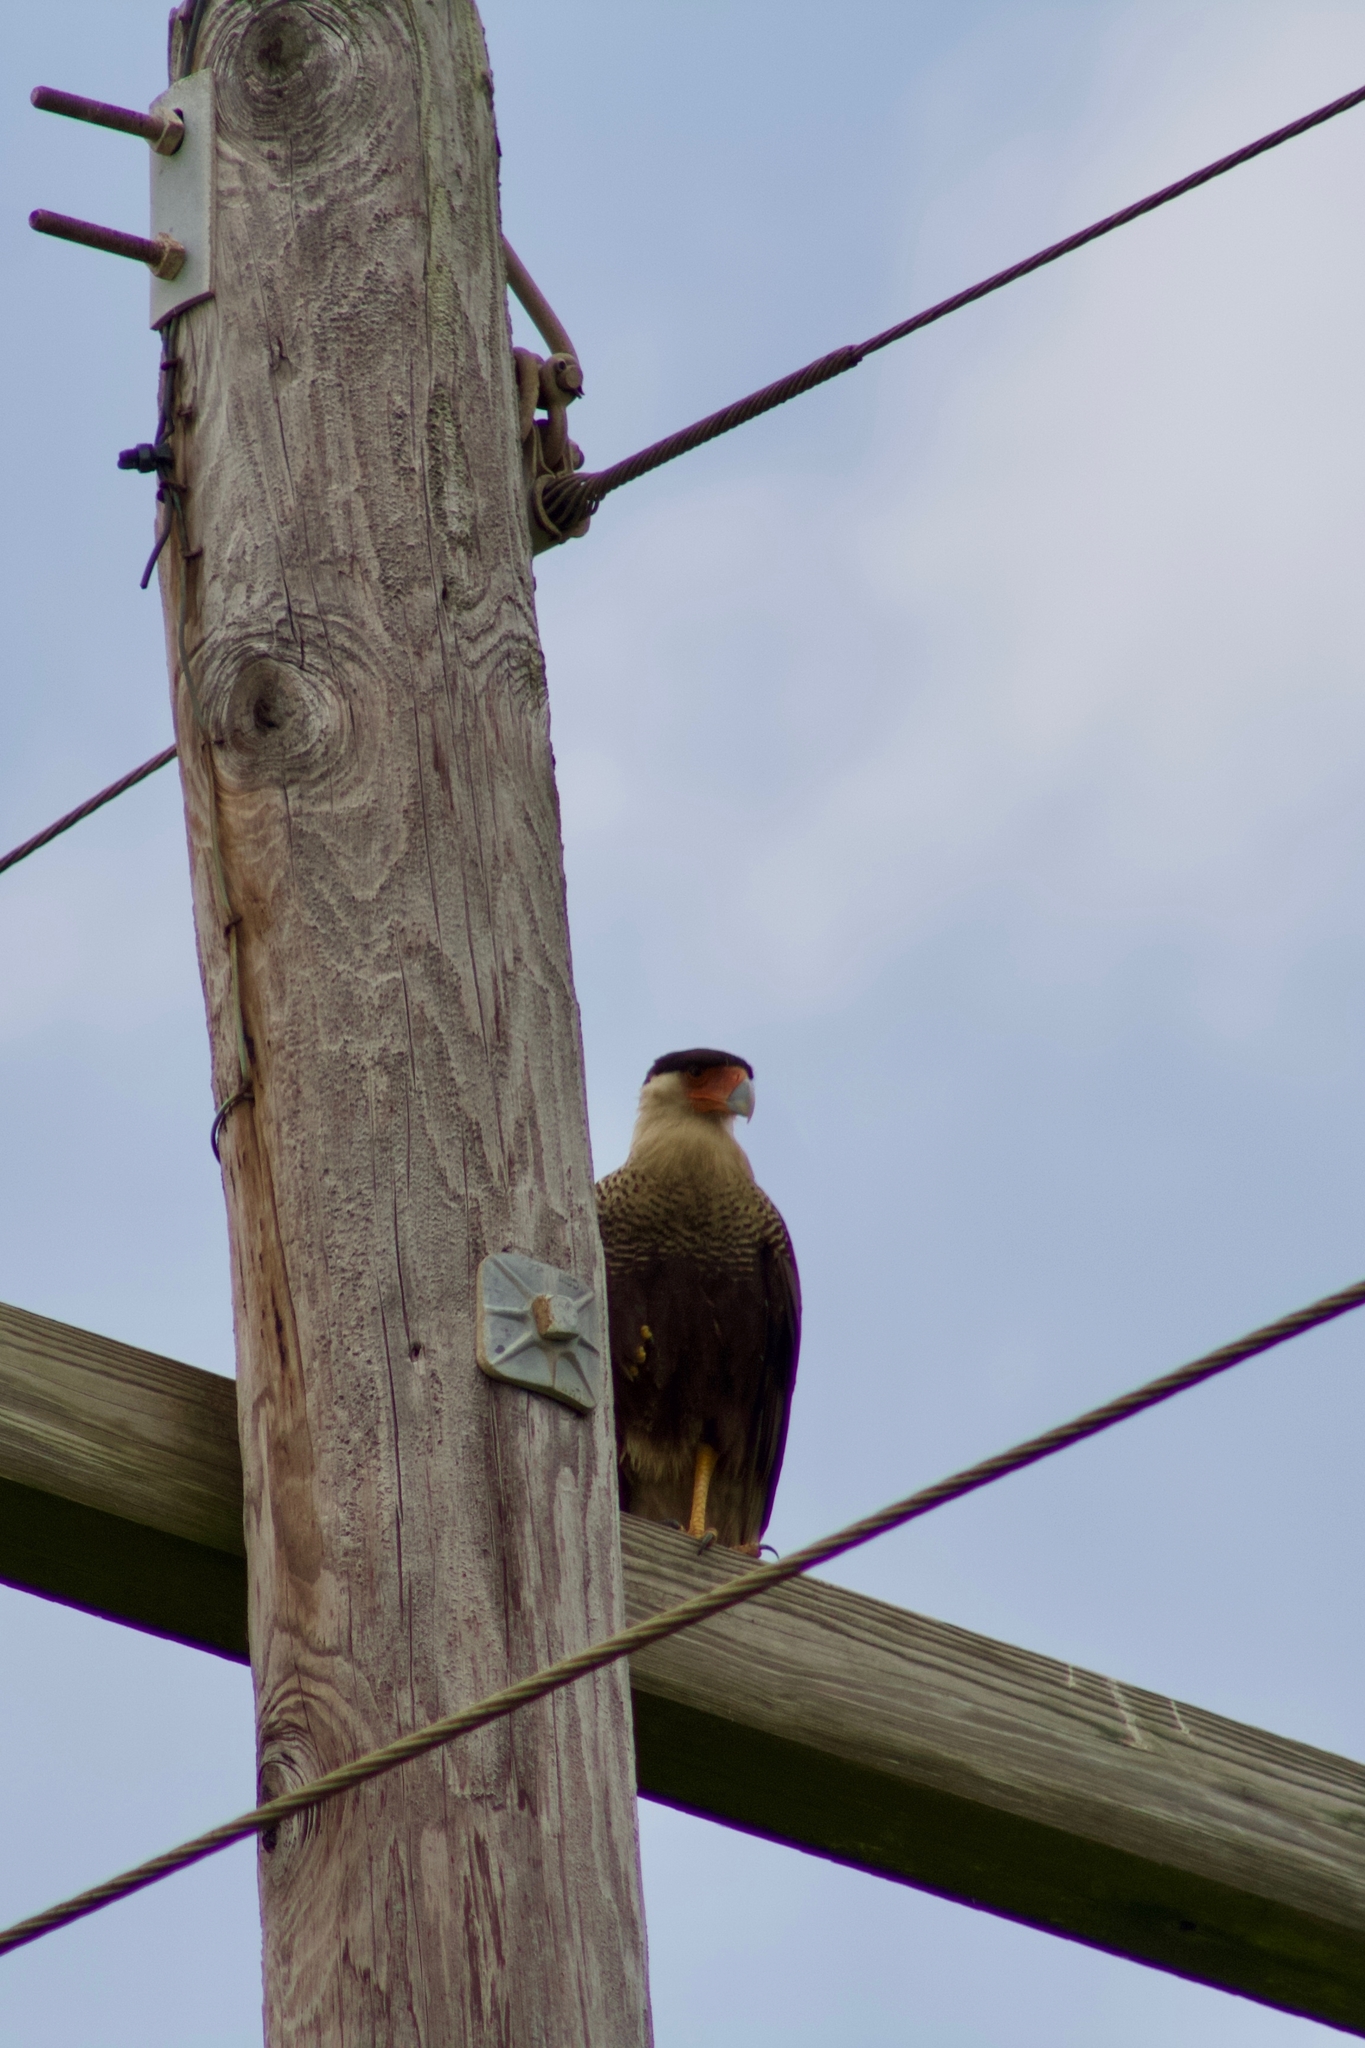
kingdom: Animalia
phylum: Chordata
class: Aves
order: Falconiformes
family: Falconidae
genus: Caracara
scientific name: Caracara plancus
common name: Southern caracara
